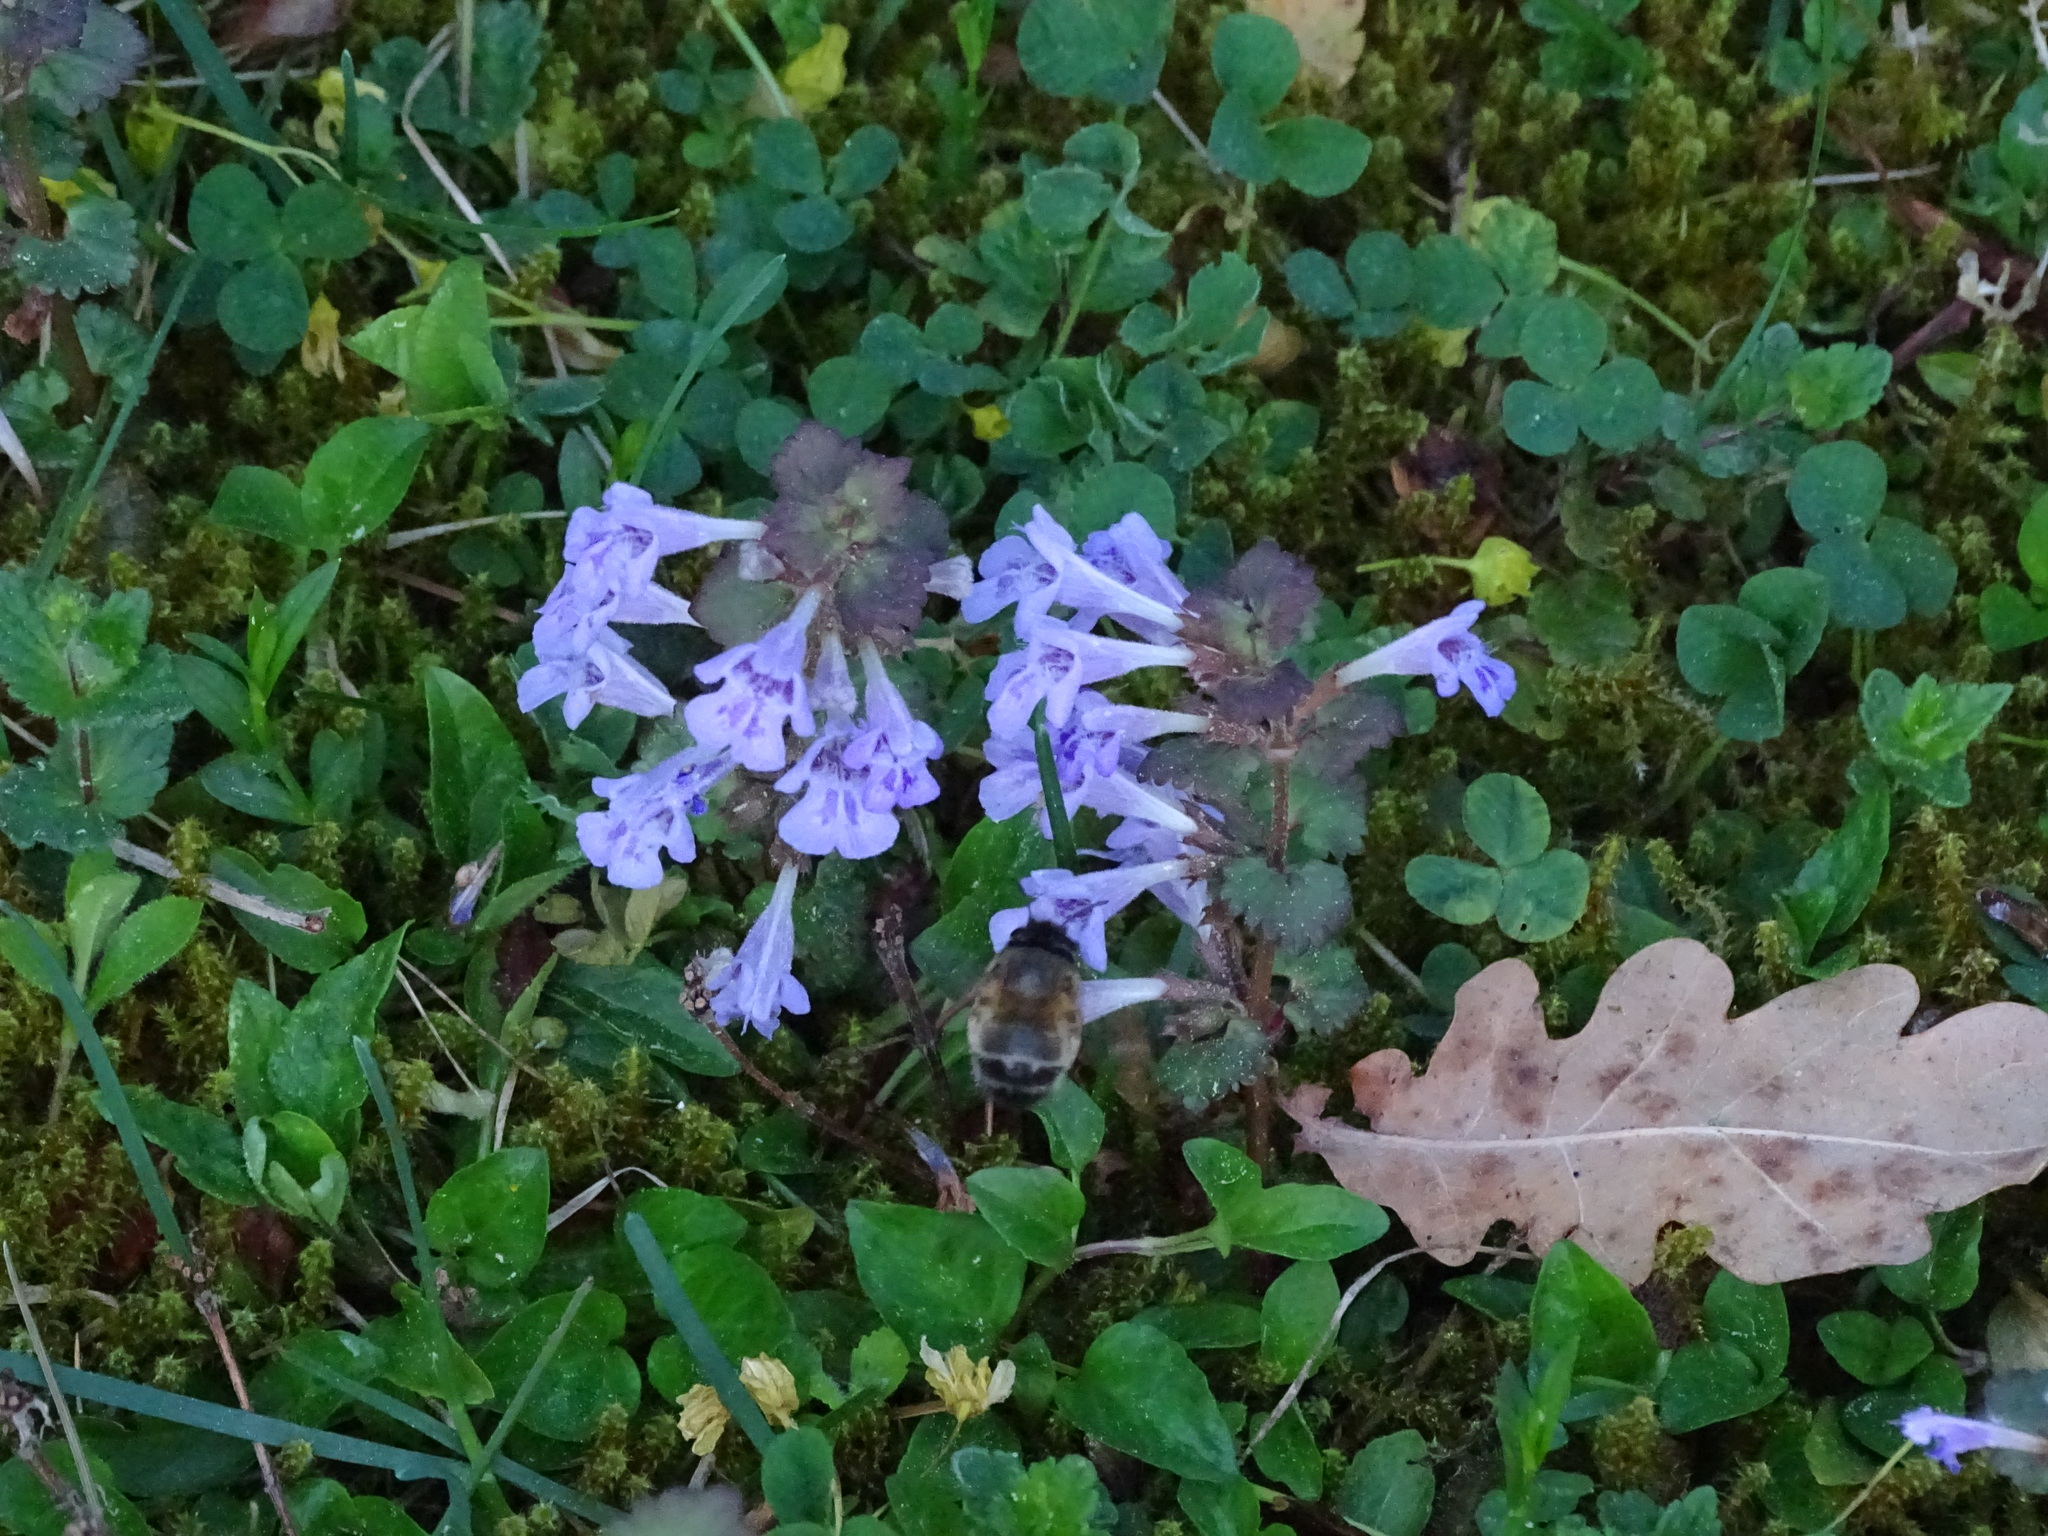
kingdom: Animalia
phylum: Arthropoda
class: Insecta
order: Hymenoptera
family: Apidae
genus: Anthophora
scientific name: Anthophora plumipes
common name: Hairy-footed flower bee
